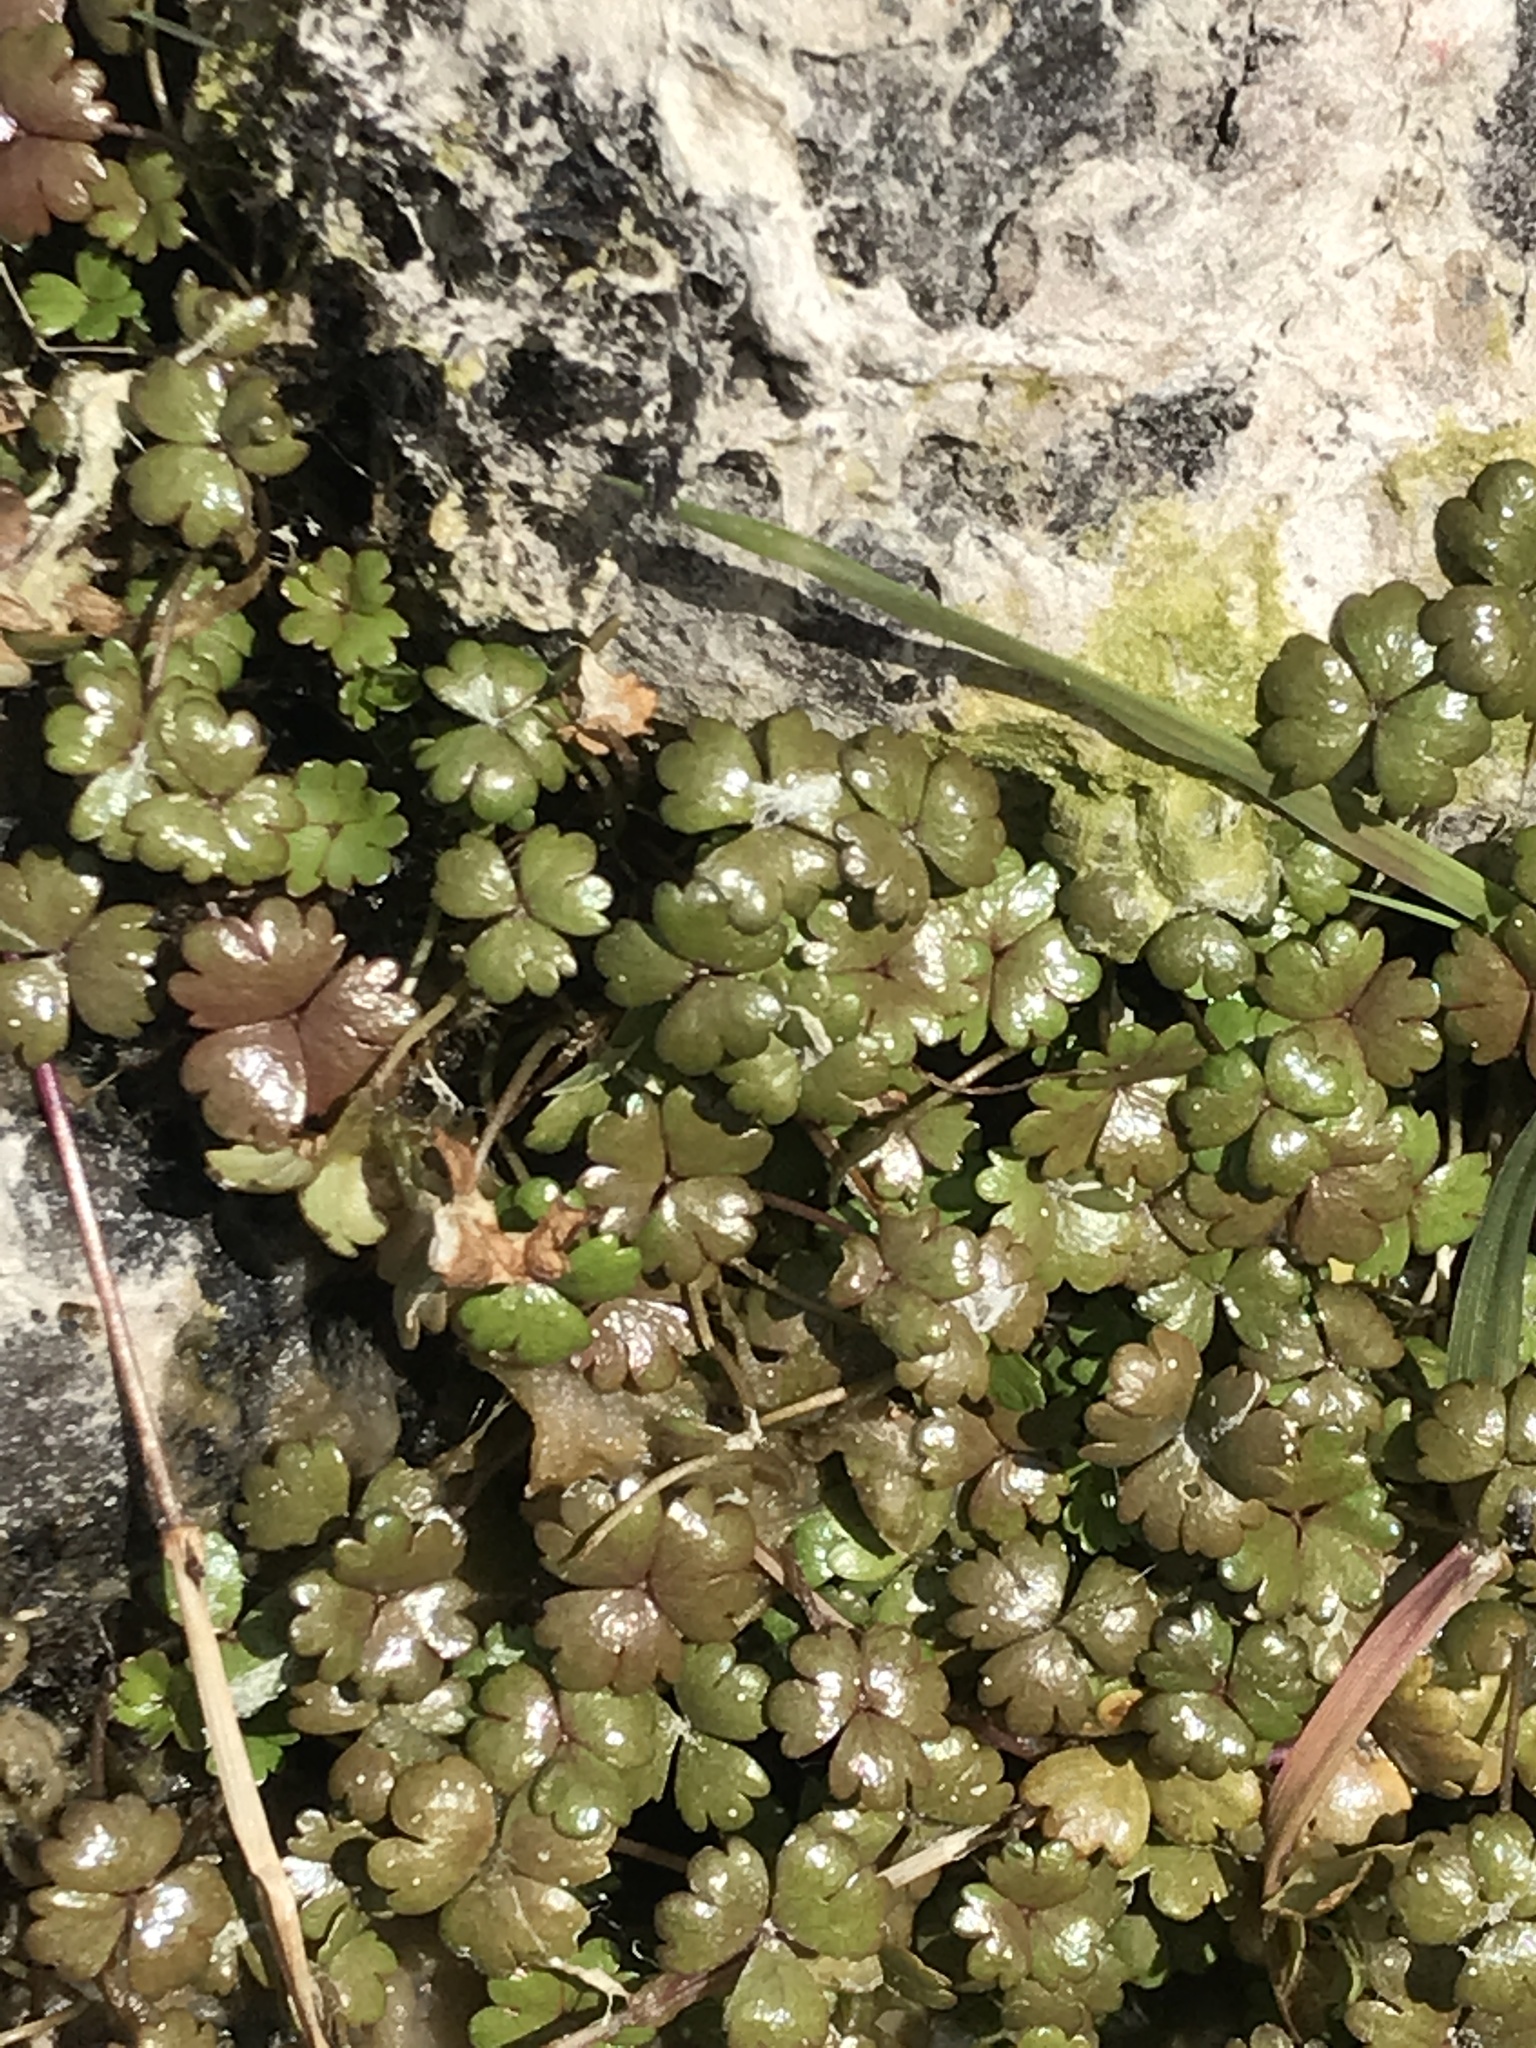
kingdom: Plantae
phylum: Tracheophyta
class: Magnoliopsida
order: Apiales
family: Araliaceae
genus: Hydrocotyle
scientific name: Hydrocotyle sulcata
